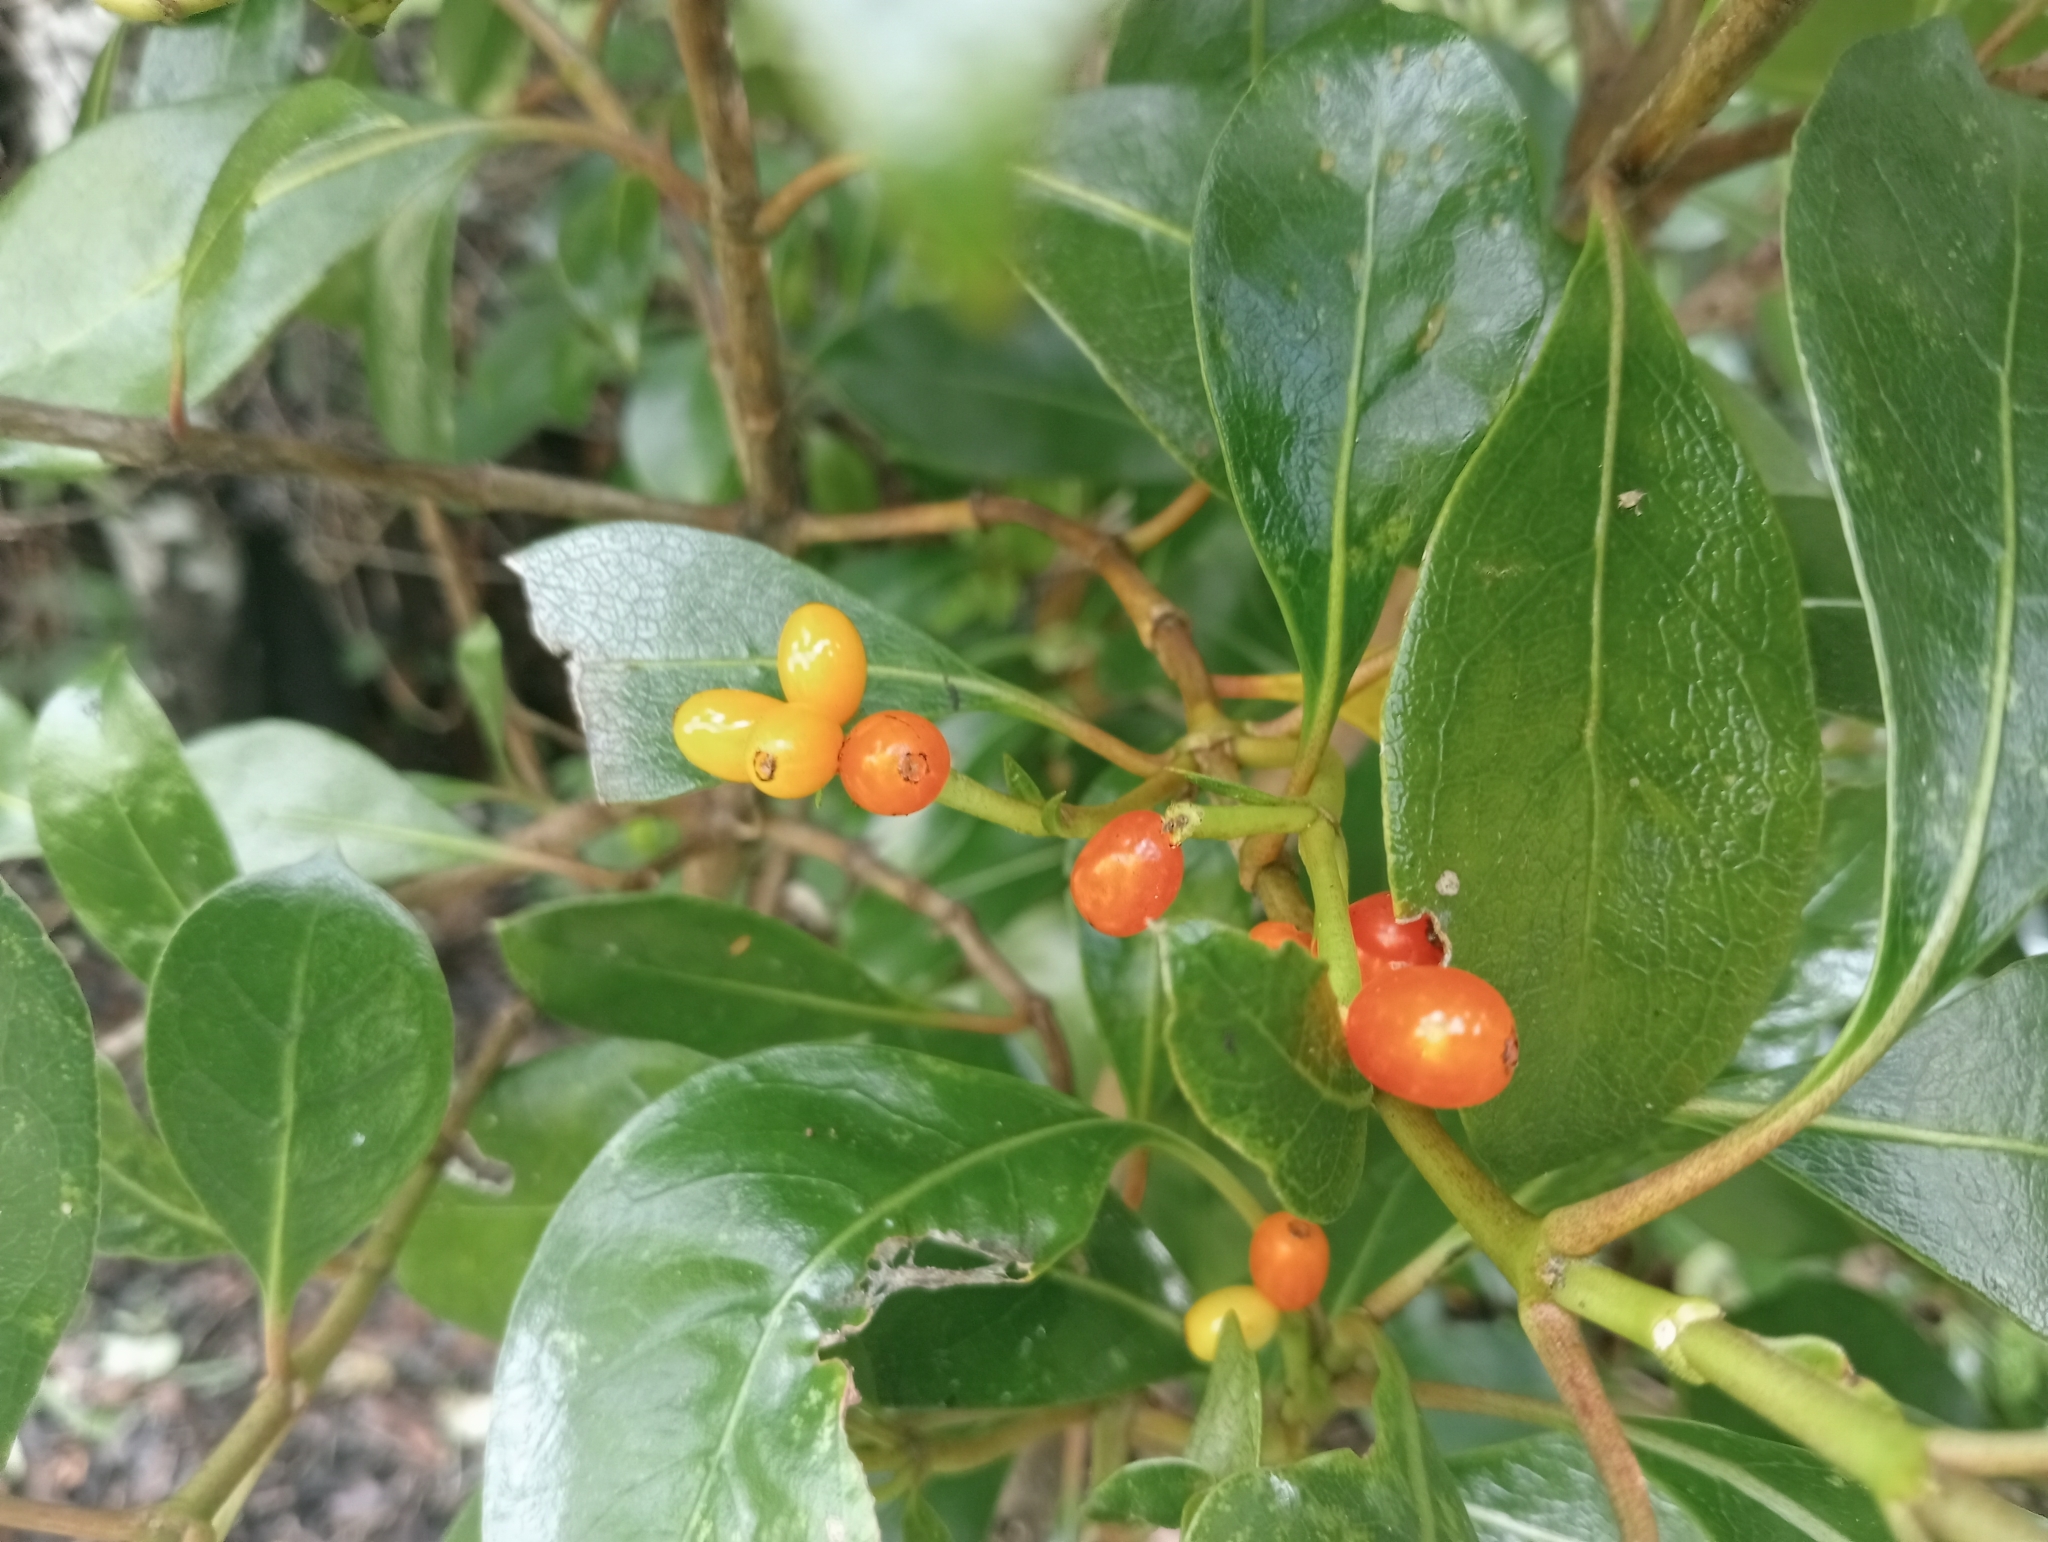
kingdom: Plantae
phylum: Tracheophyta
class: Magnoliopsida
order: Gentianales
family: Rubiaceae
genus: Coprosma
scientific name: Coprosma lucida
